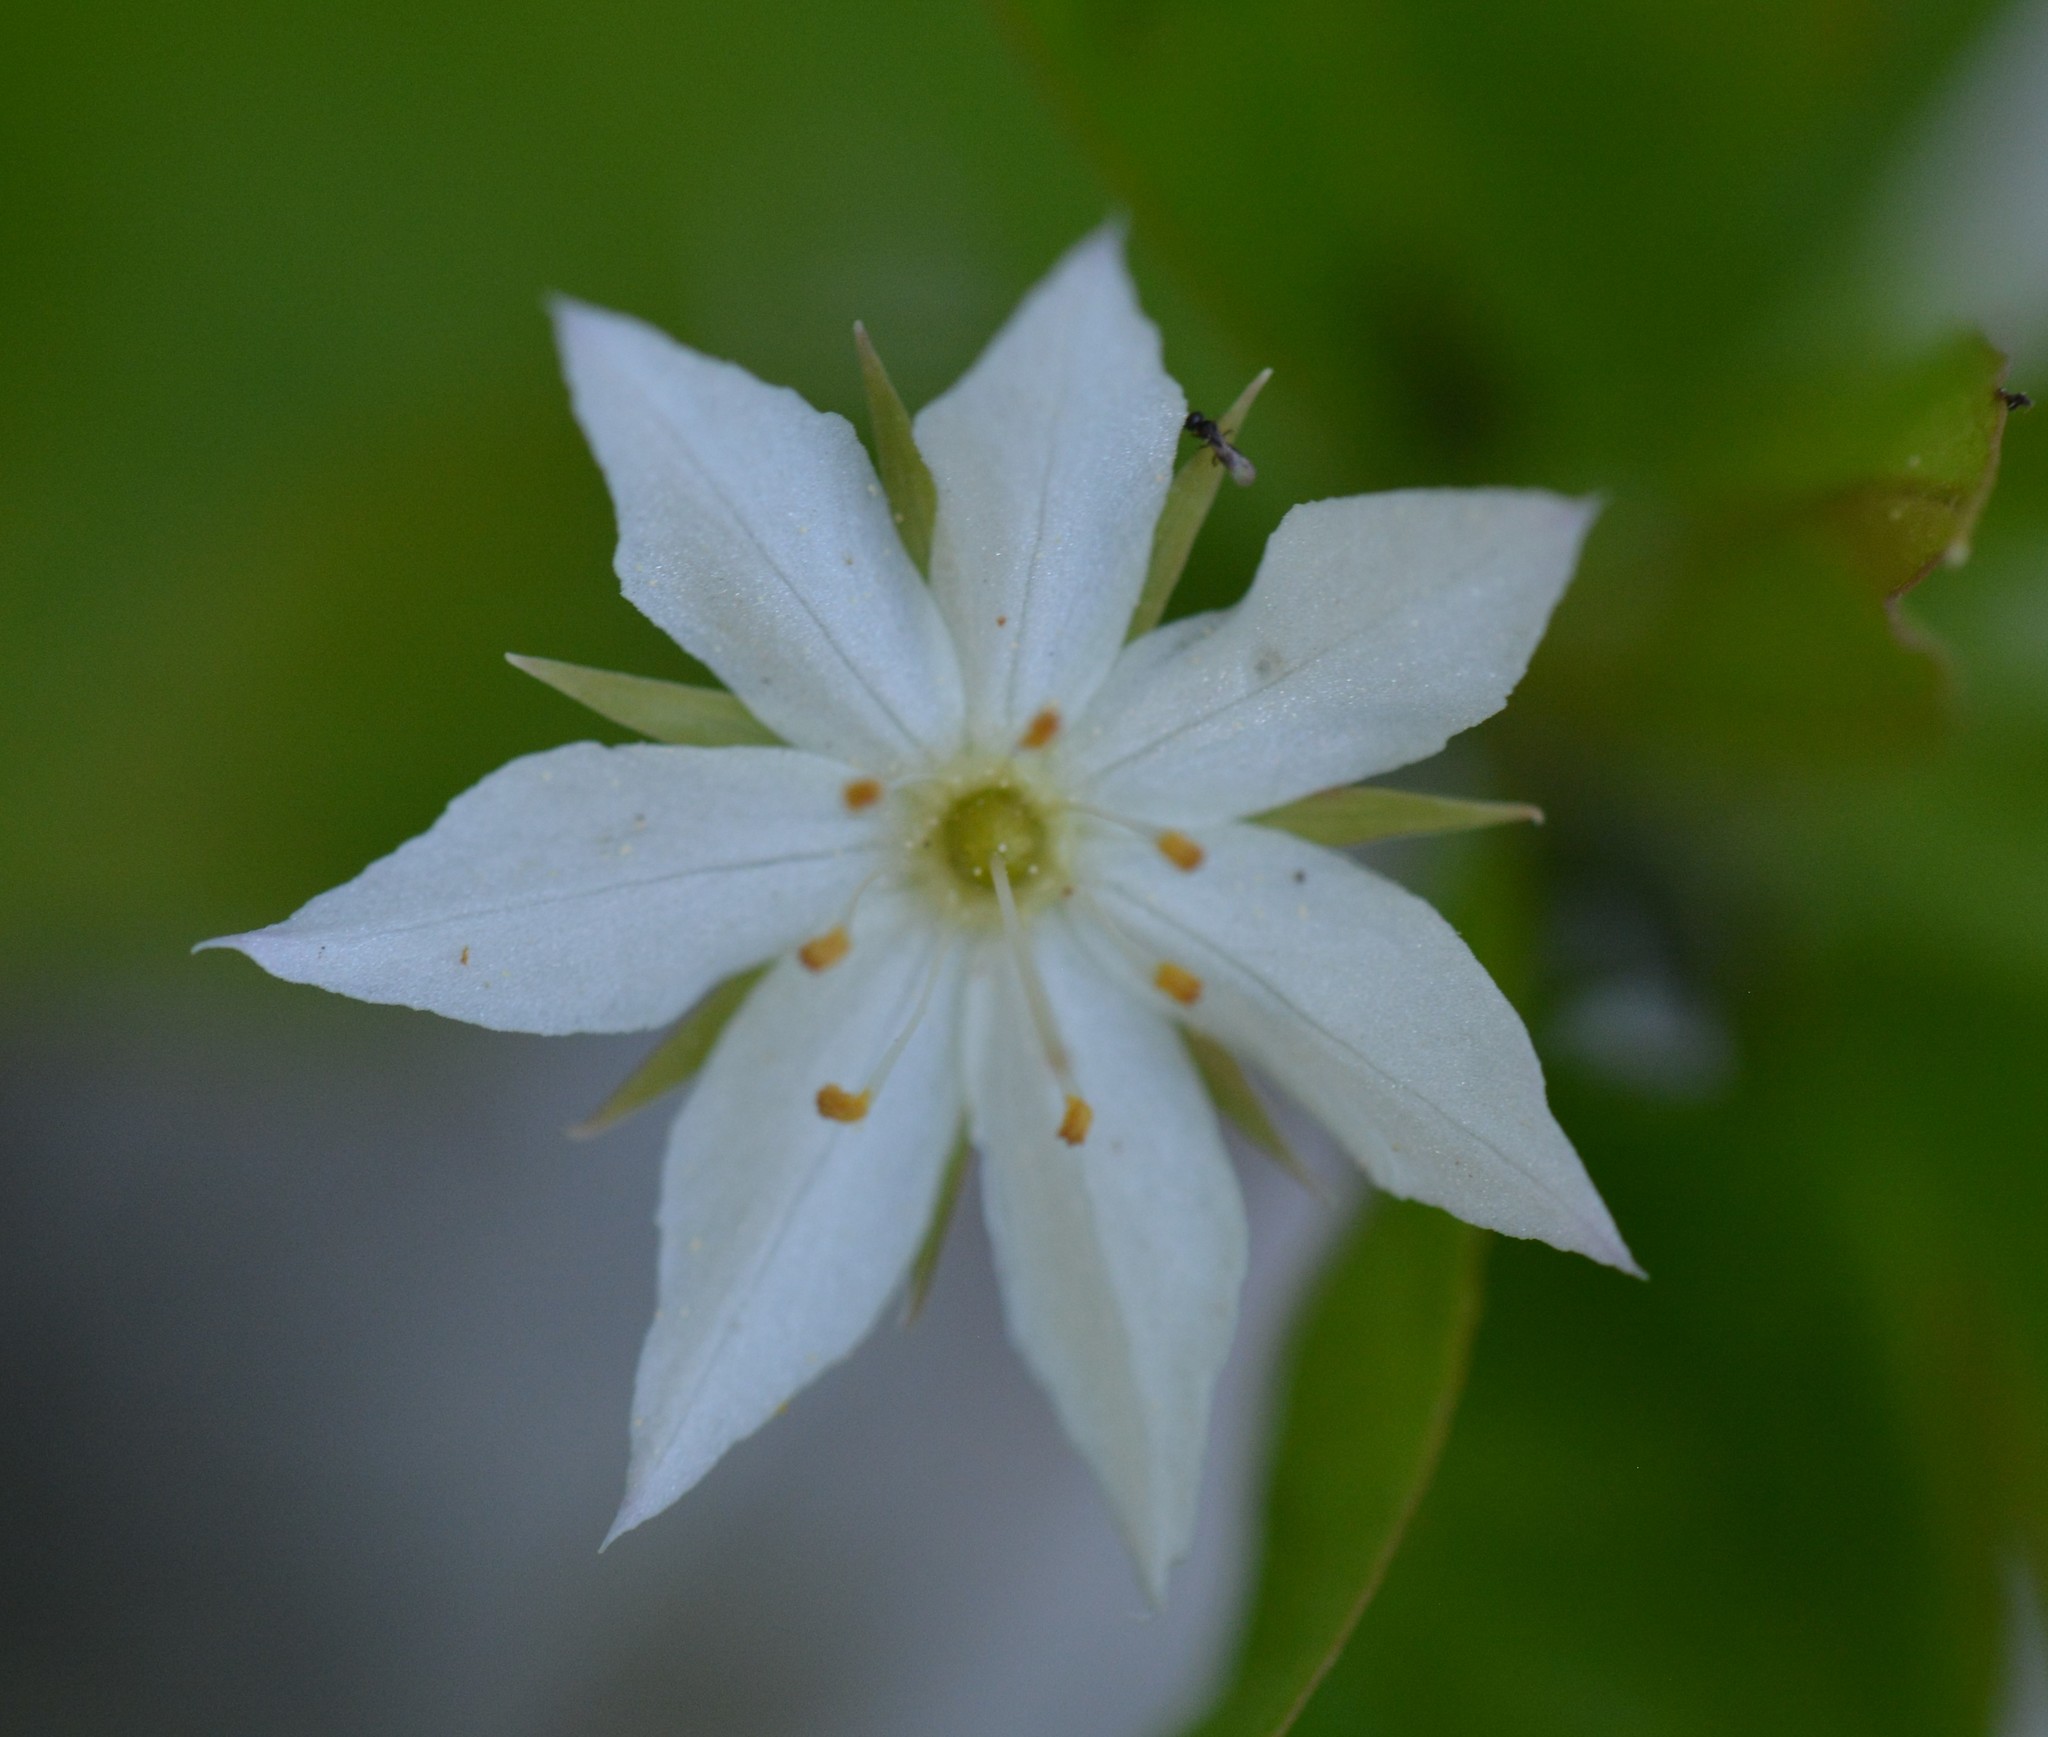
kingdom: Plantae
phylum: Tracheophyta
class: Magnoliopsida
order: Ericales
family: Primulaceae
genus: Lysimachia
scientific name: Lysimachia borealis
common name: American starflower
